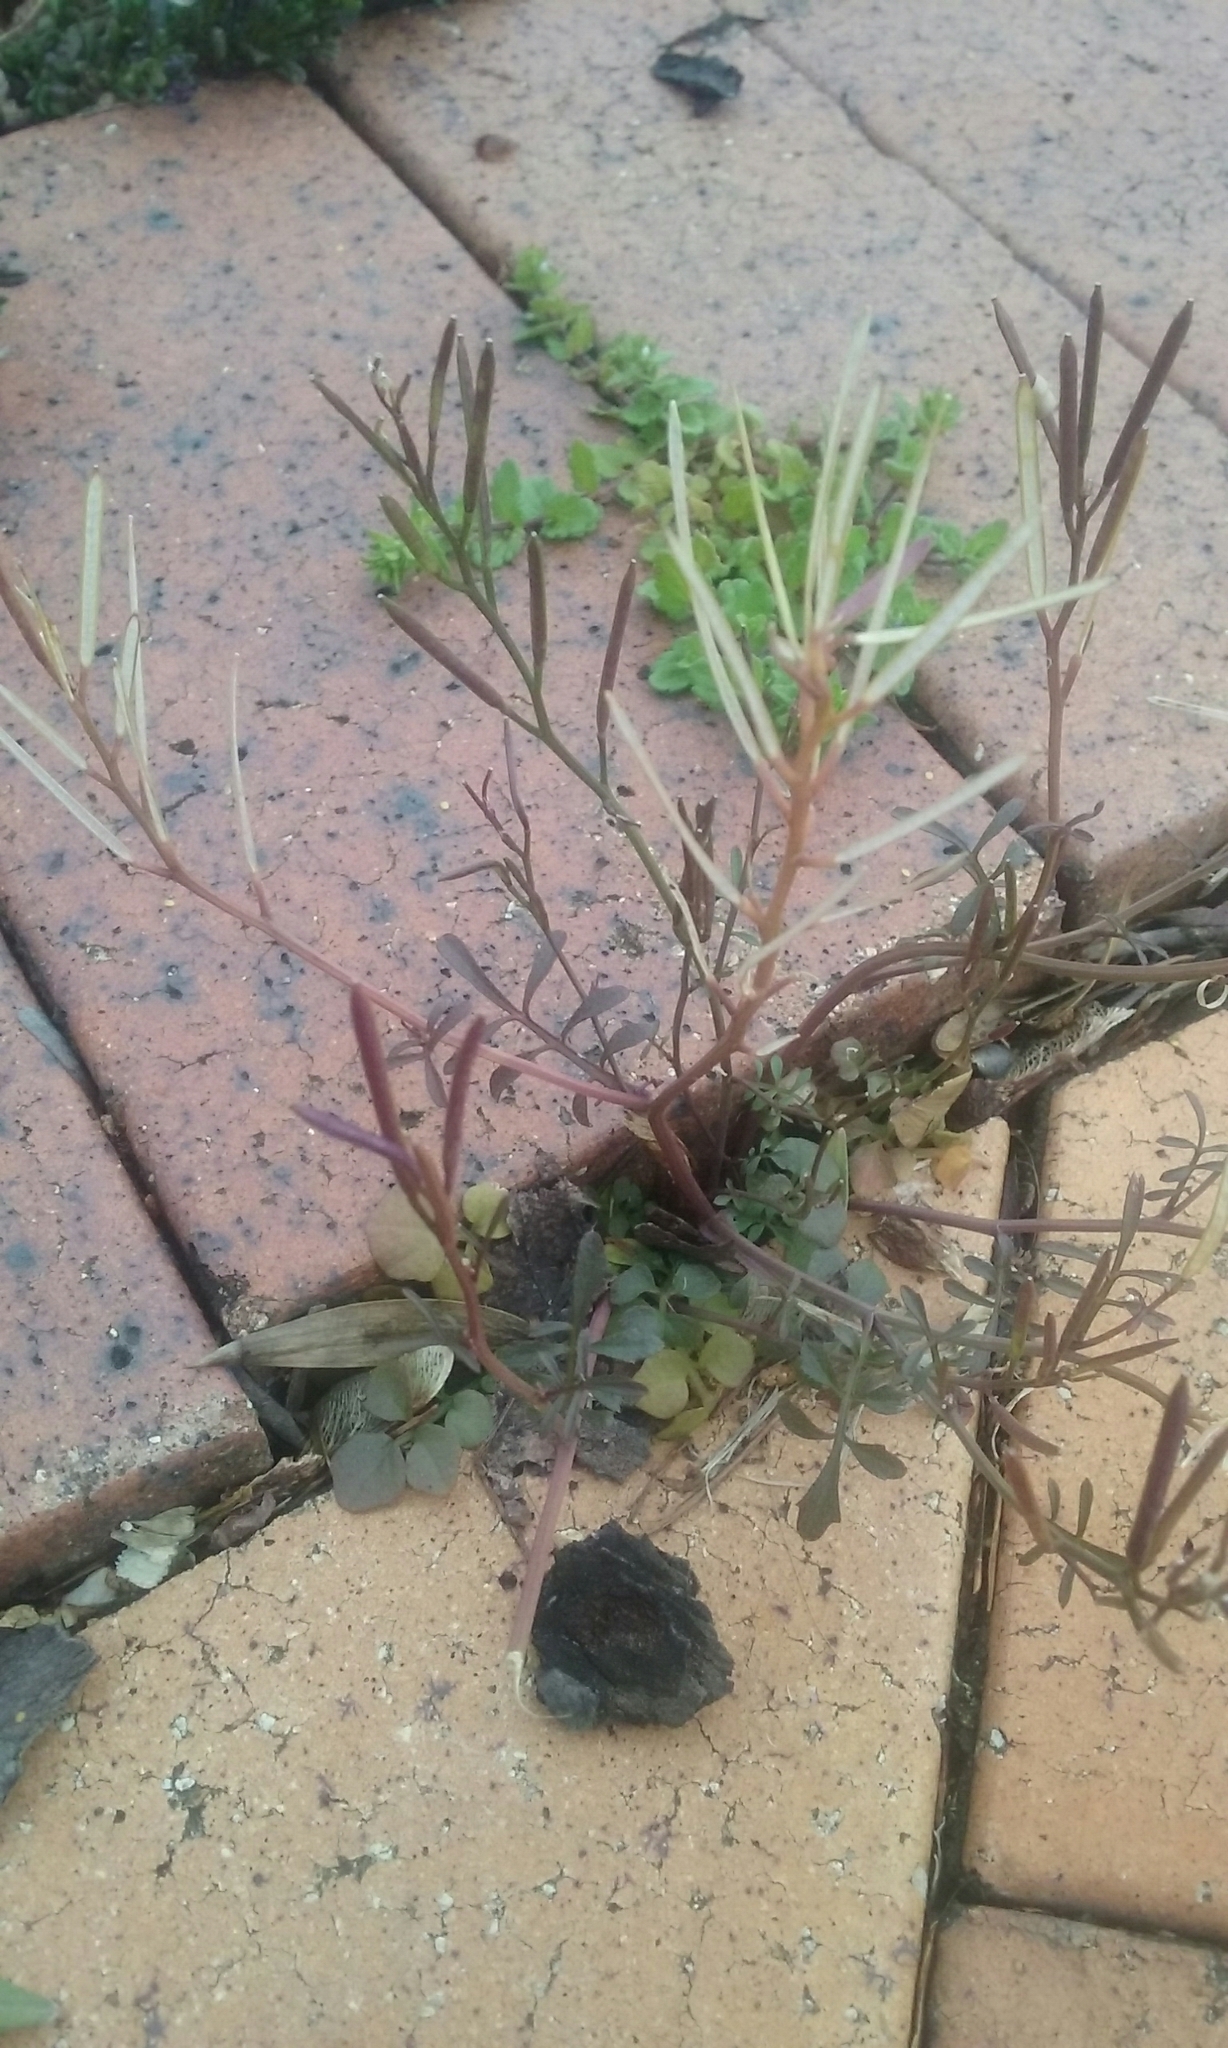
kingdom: Plantae
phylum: Tracheophyta
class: Magnoliopsida
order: Brassicales
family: Brassicaceae
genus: Cardamine
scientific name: Cardamine hirsuta
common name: Hairy bittercress
